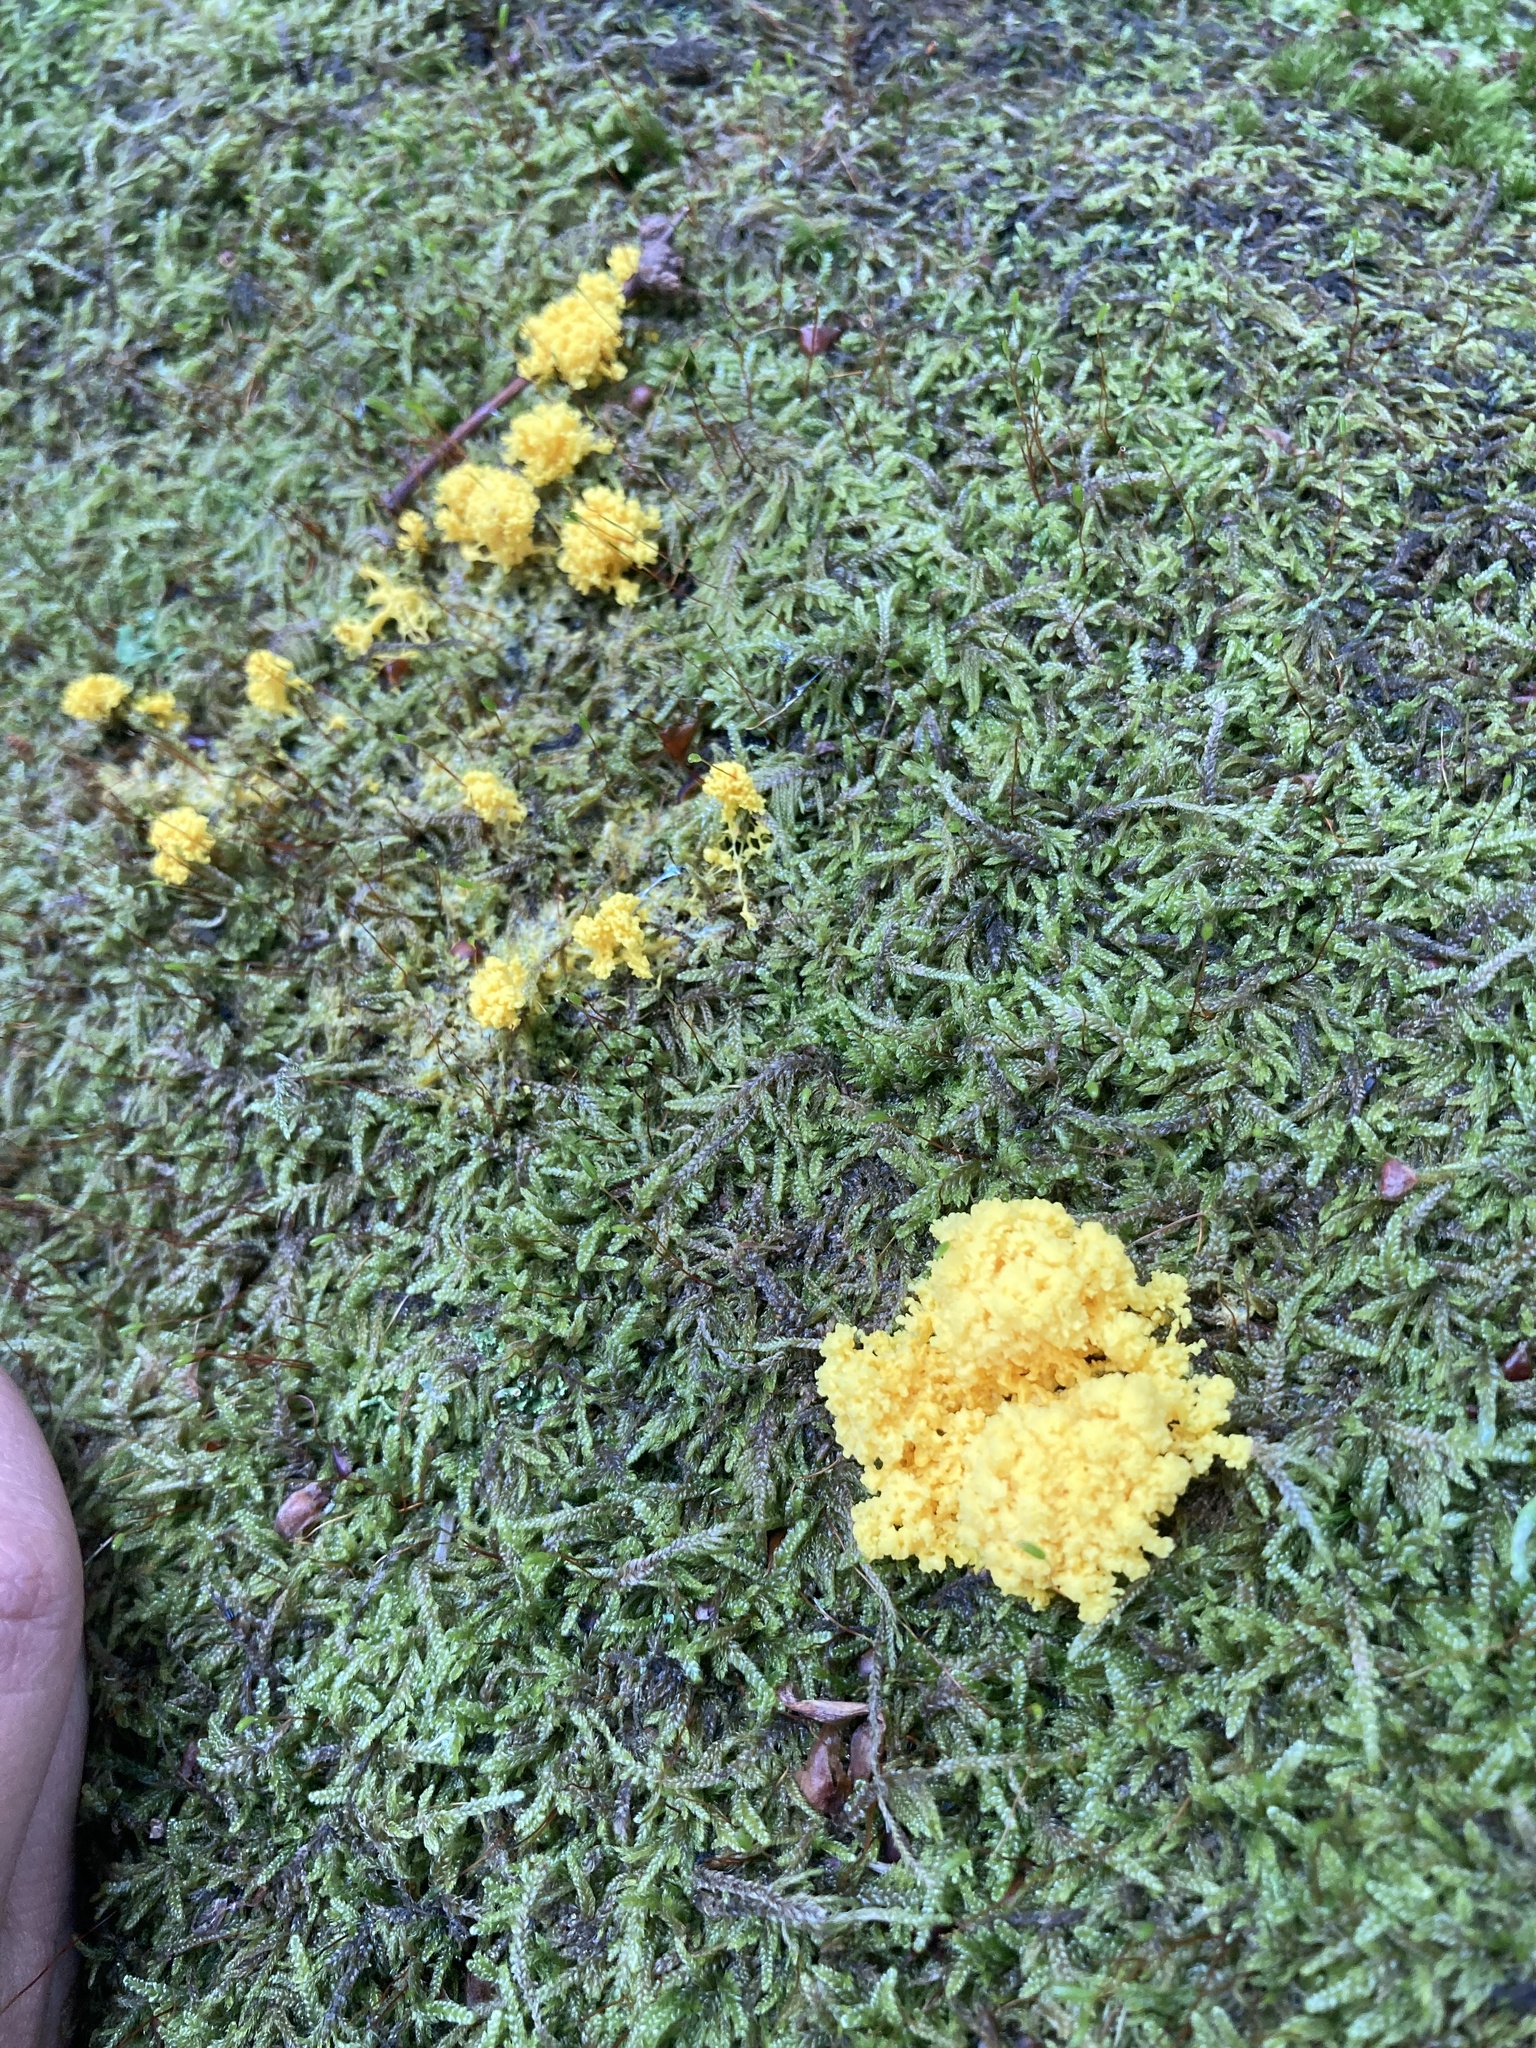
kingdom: Protozoa
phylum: Mycetozoa
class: Myxomycetes
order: Physarales
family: Physaraceae
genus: Fuligo
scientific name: Fuligo septica
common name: Dog vomit slime mold
